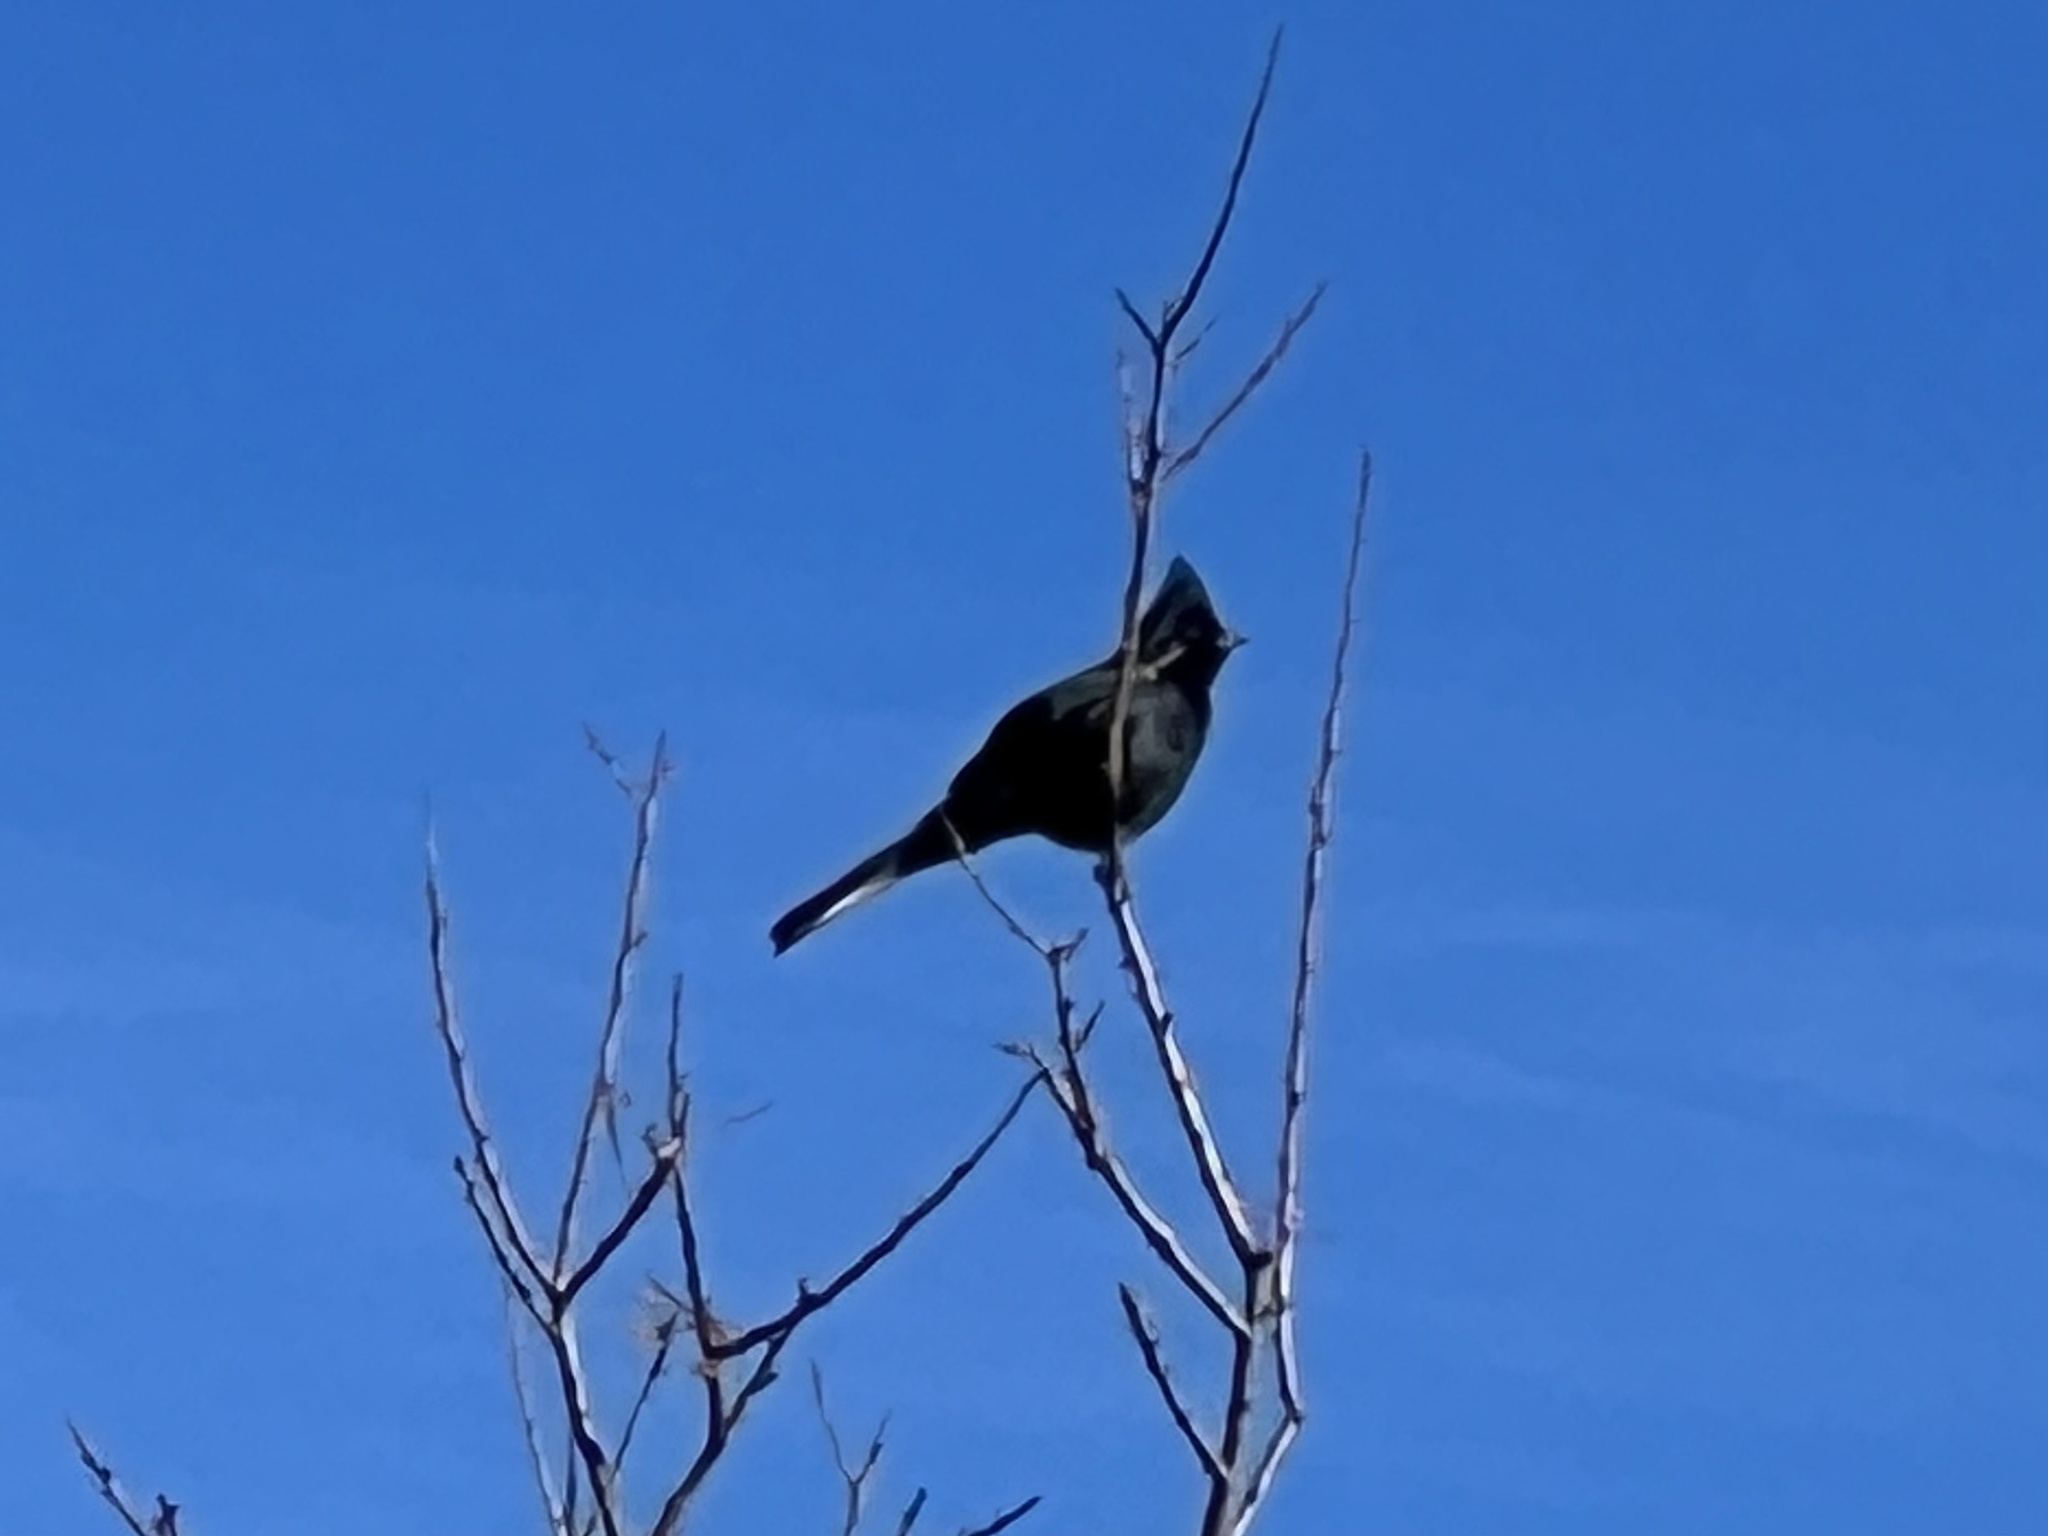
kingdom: Animalia
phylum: Chordata
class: Aves
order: Passeriformes
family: Ptilogonatidae
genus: Phainopepla
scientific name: Phainopepla nitens
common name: Phainopepla
